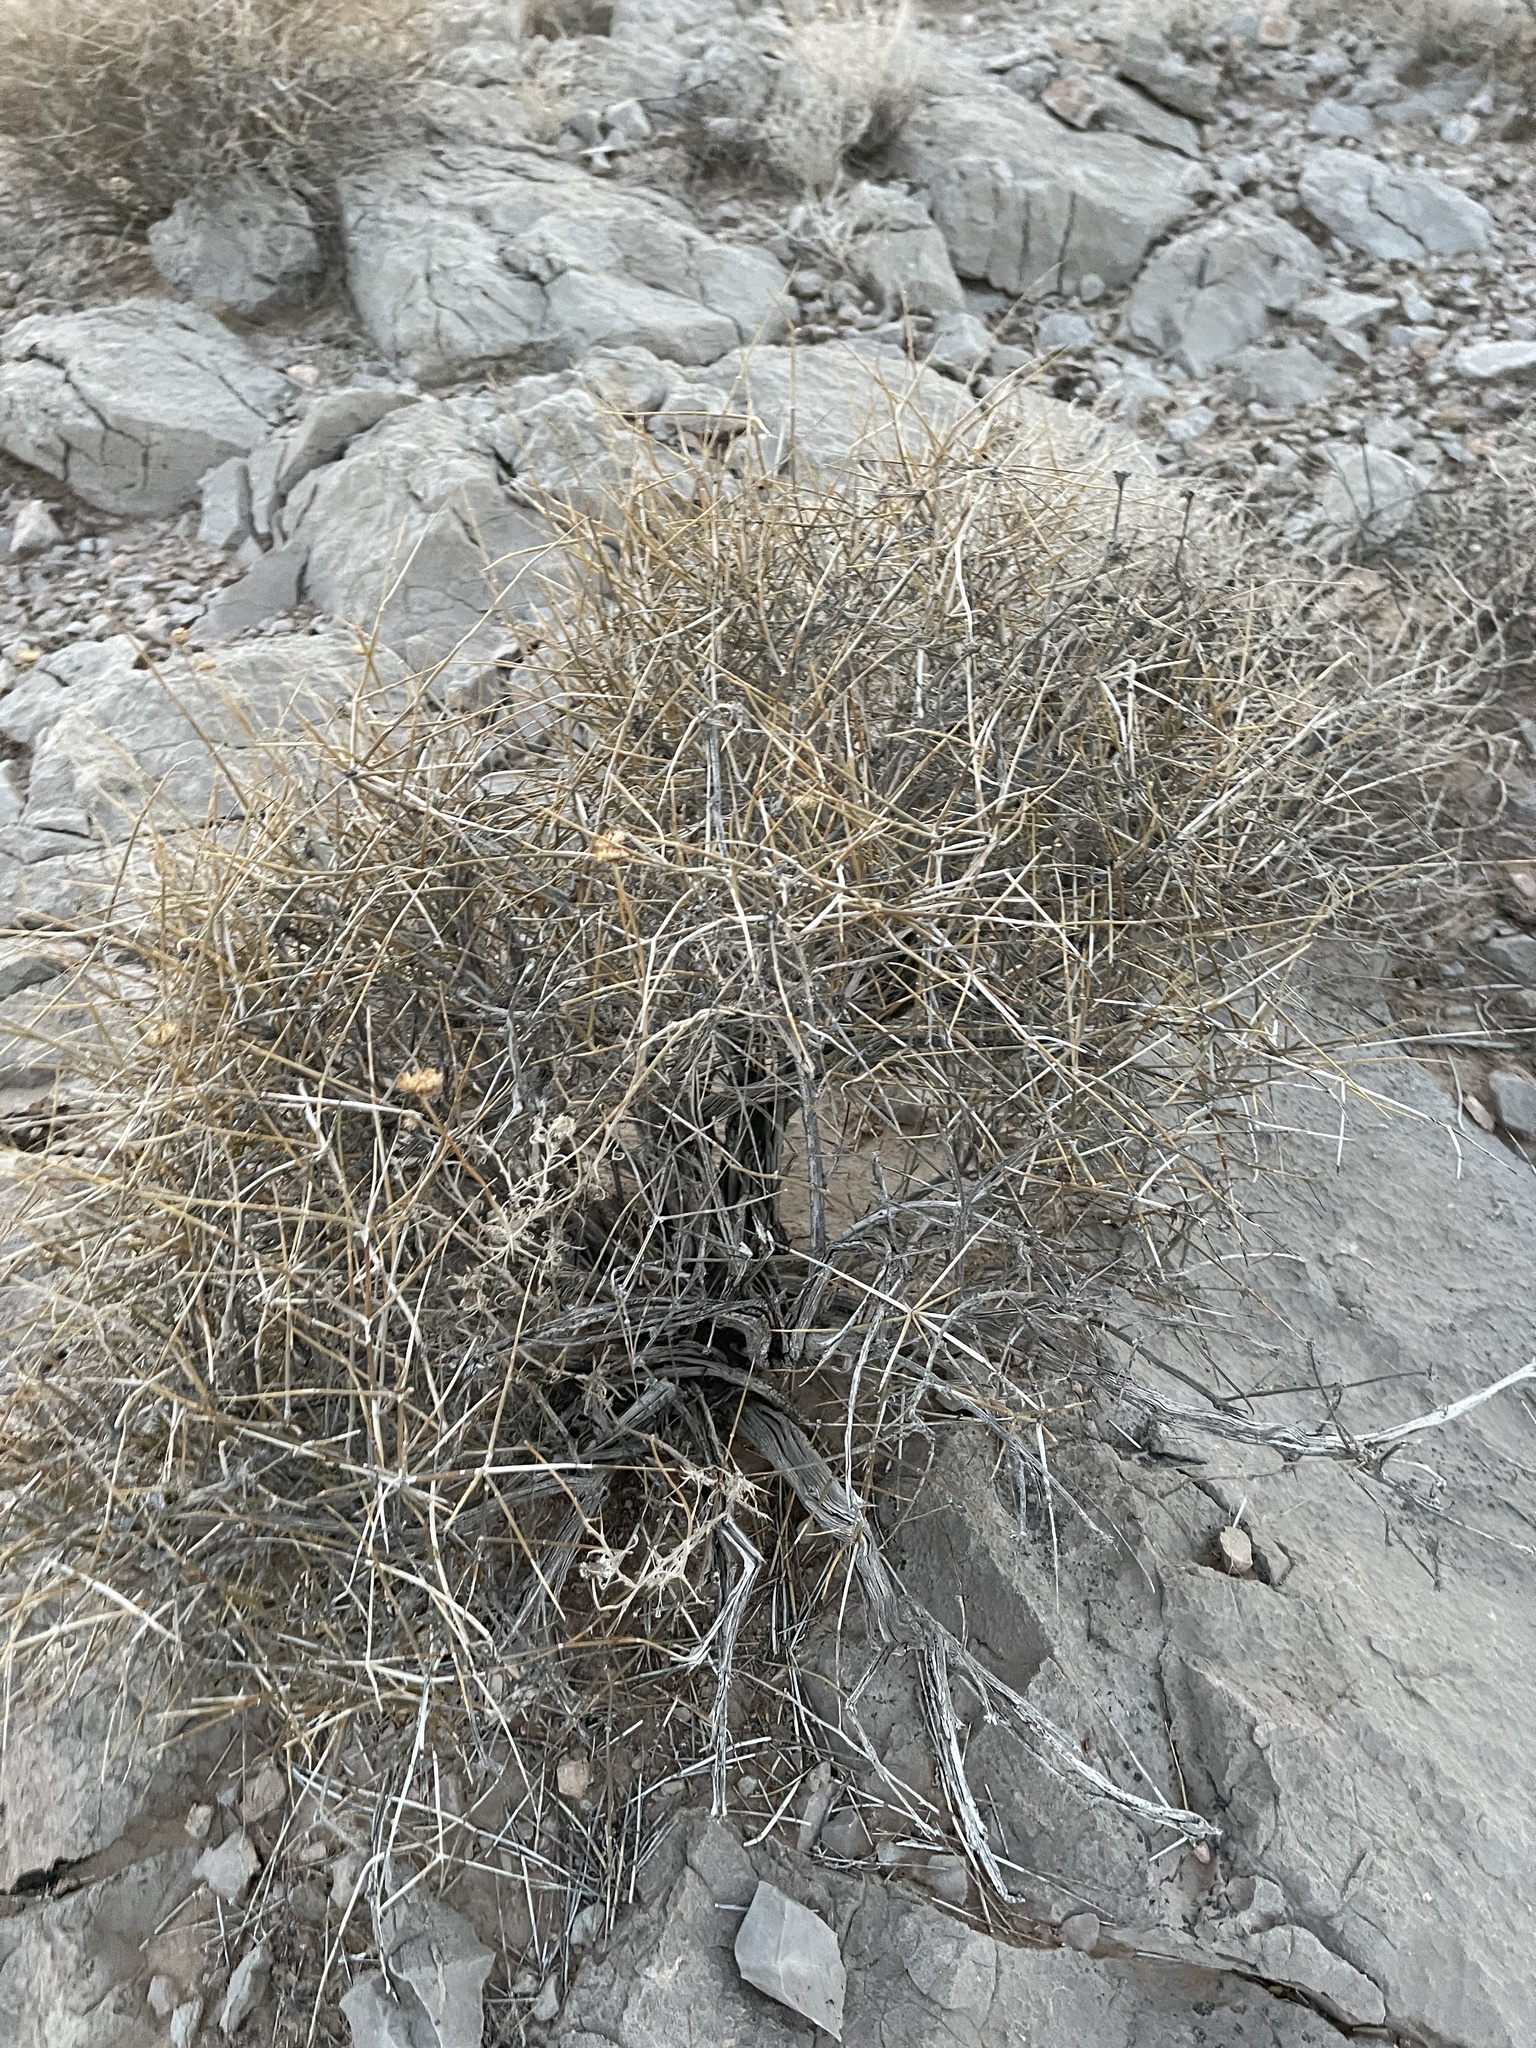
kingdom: Plantae
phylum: Tracheophyta
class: Gnetopsida
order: Ephedrales
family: Ephedraceae
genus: Ephedra
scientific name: Ephedra nevadensis
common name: Gray ephedra
